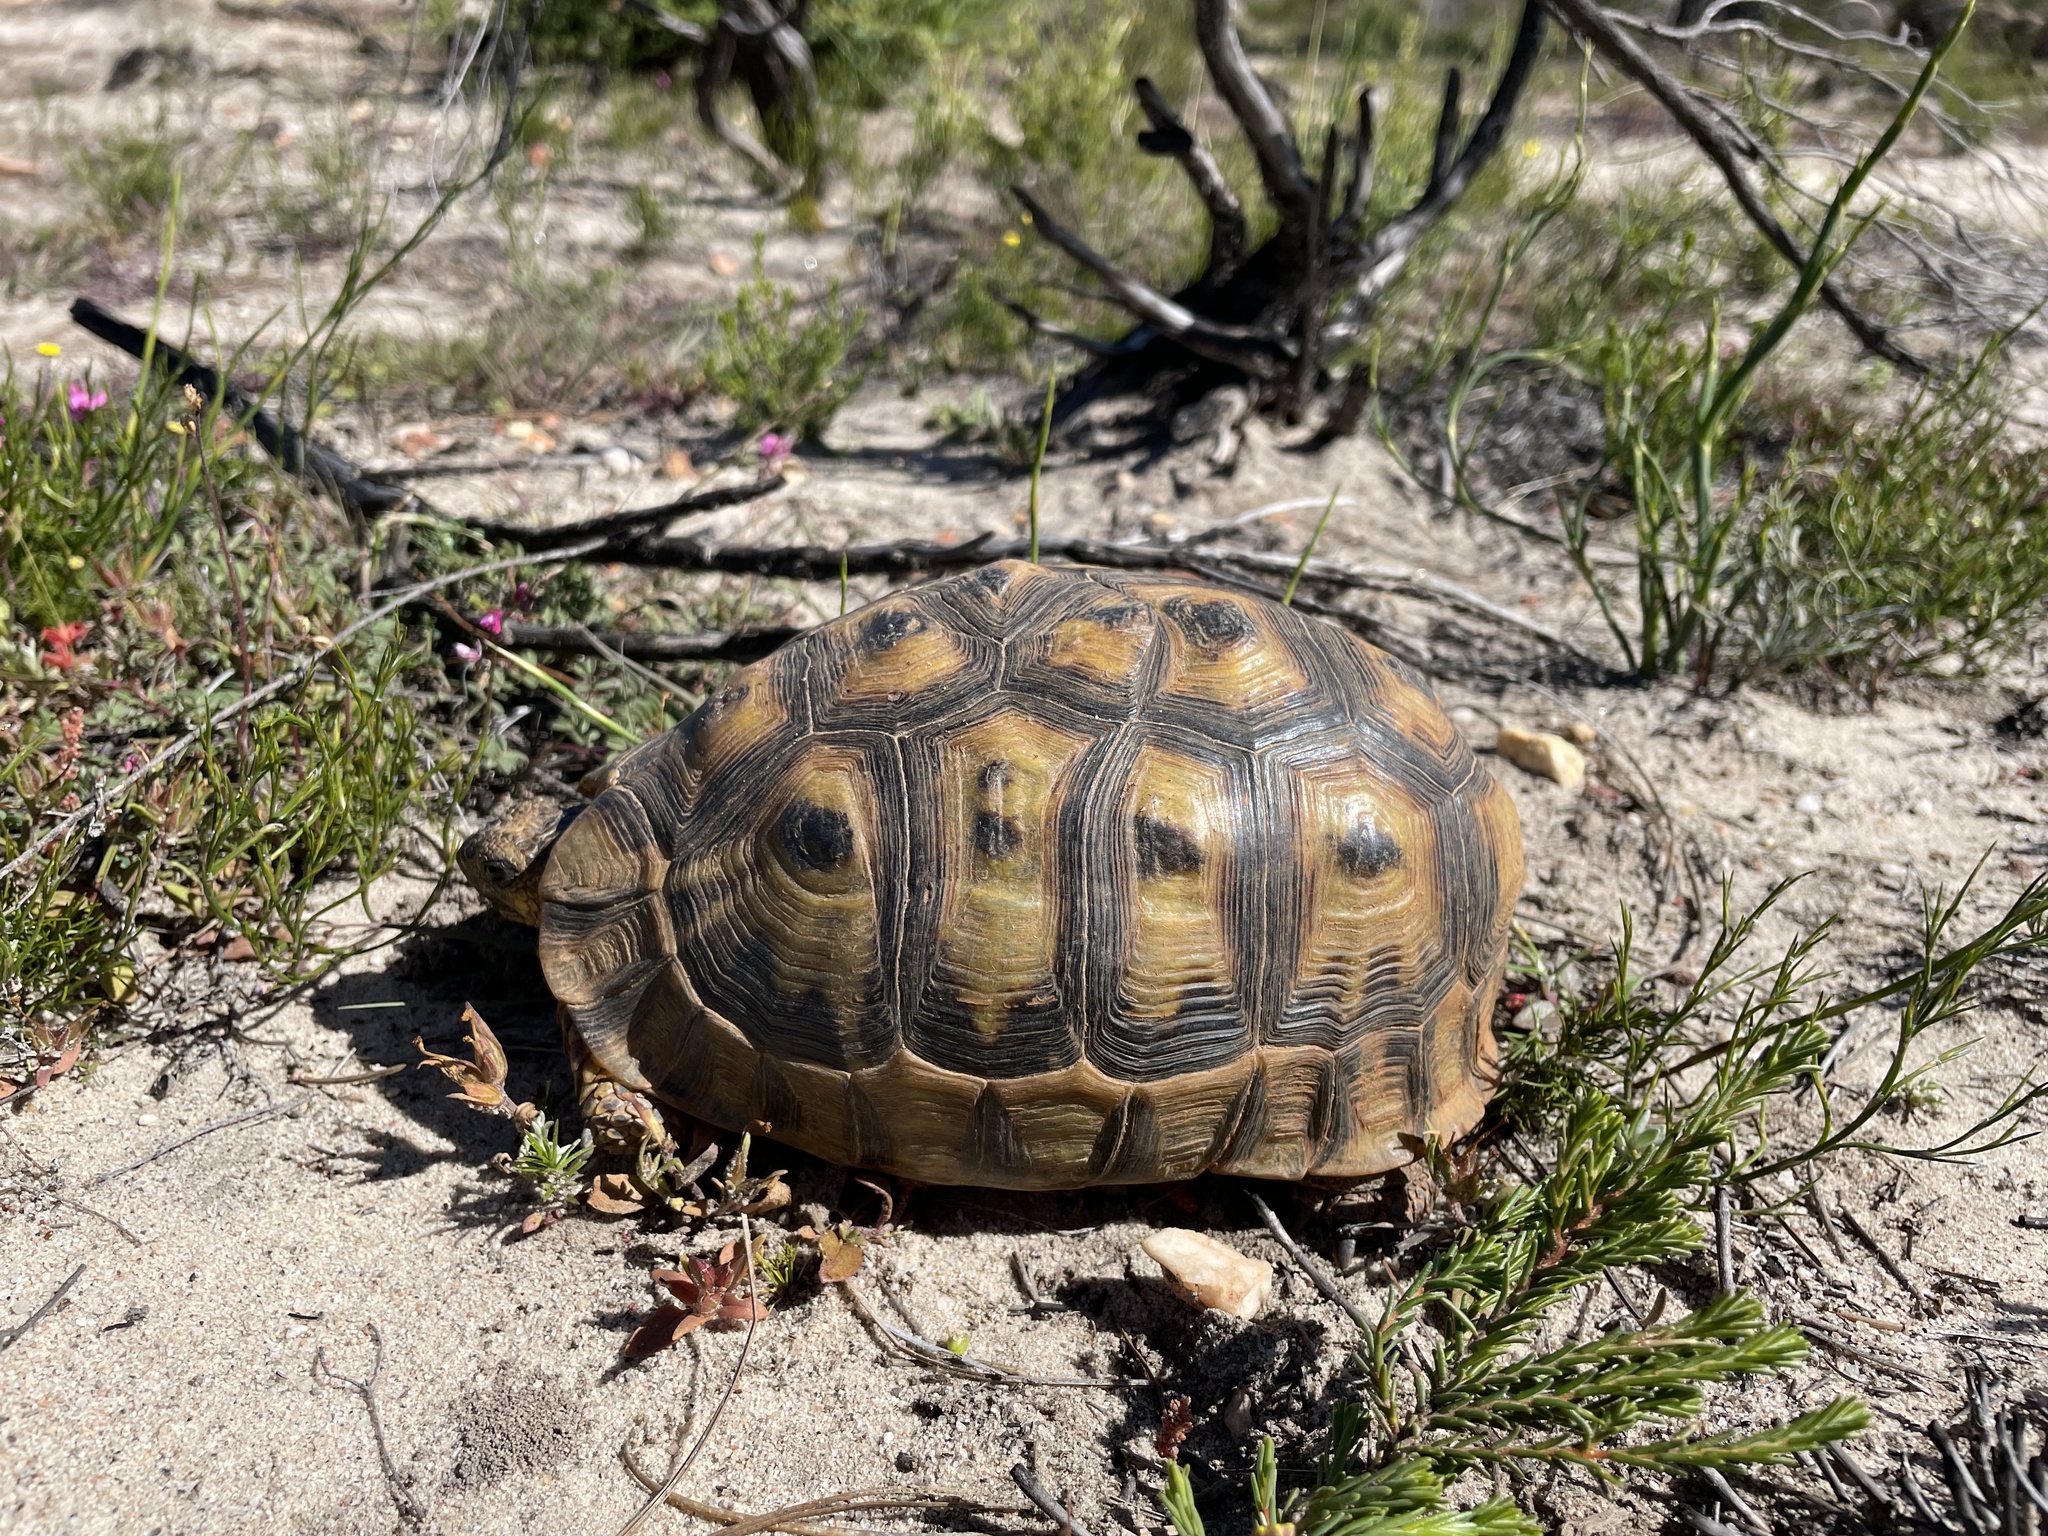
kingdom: Animalia
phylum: Chordata
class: Testudines
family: Testudinidae
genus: Chersina
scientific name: Chersina angulata
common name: South african bowsprit tortoise
